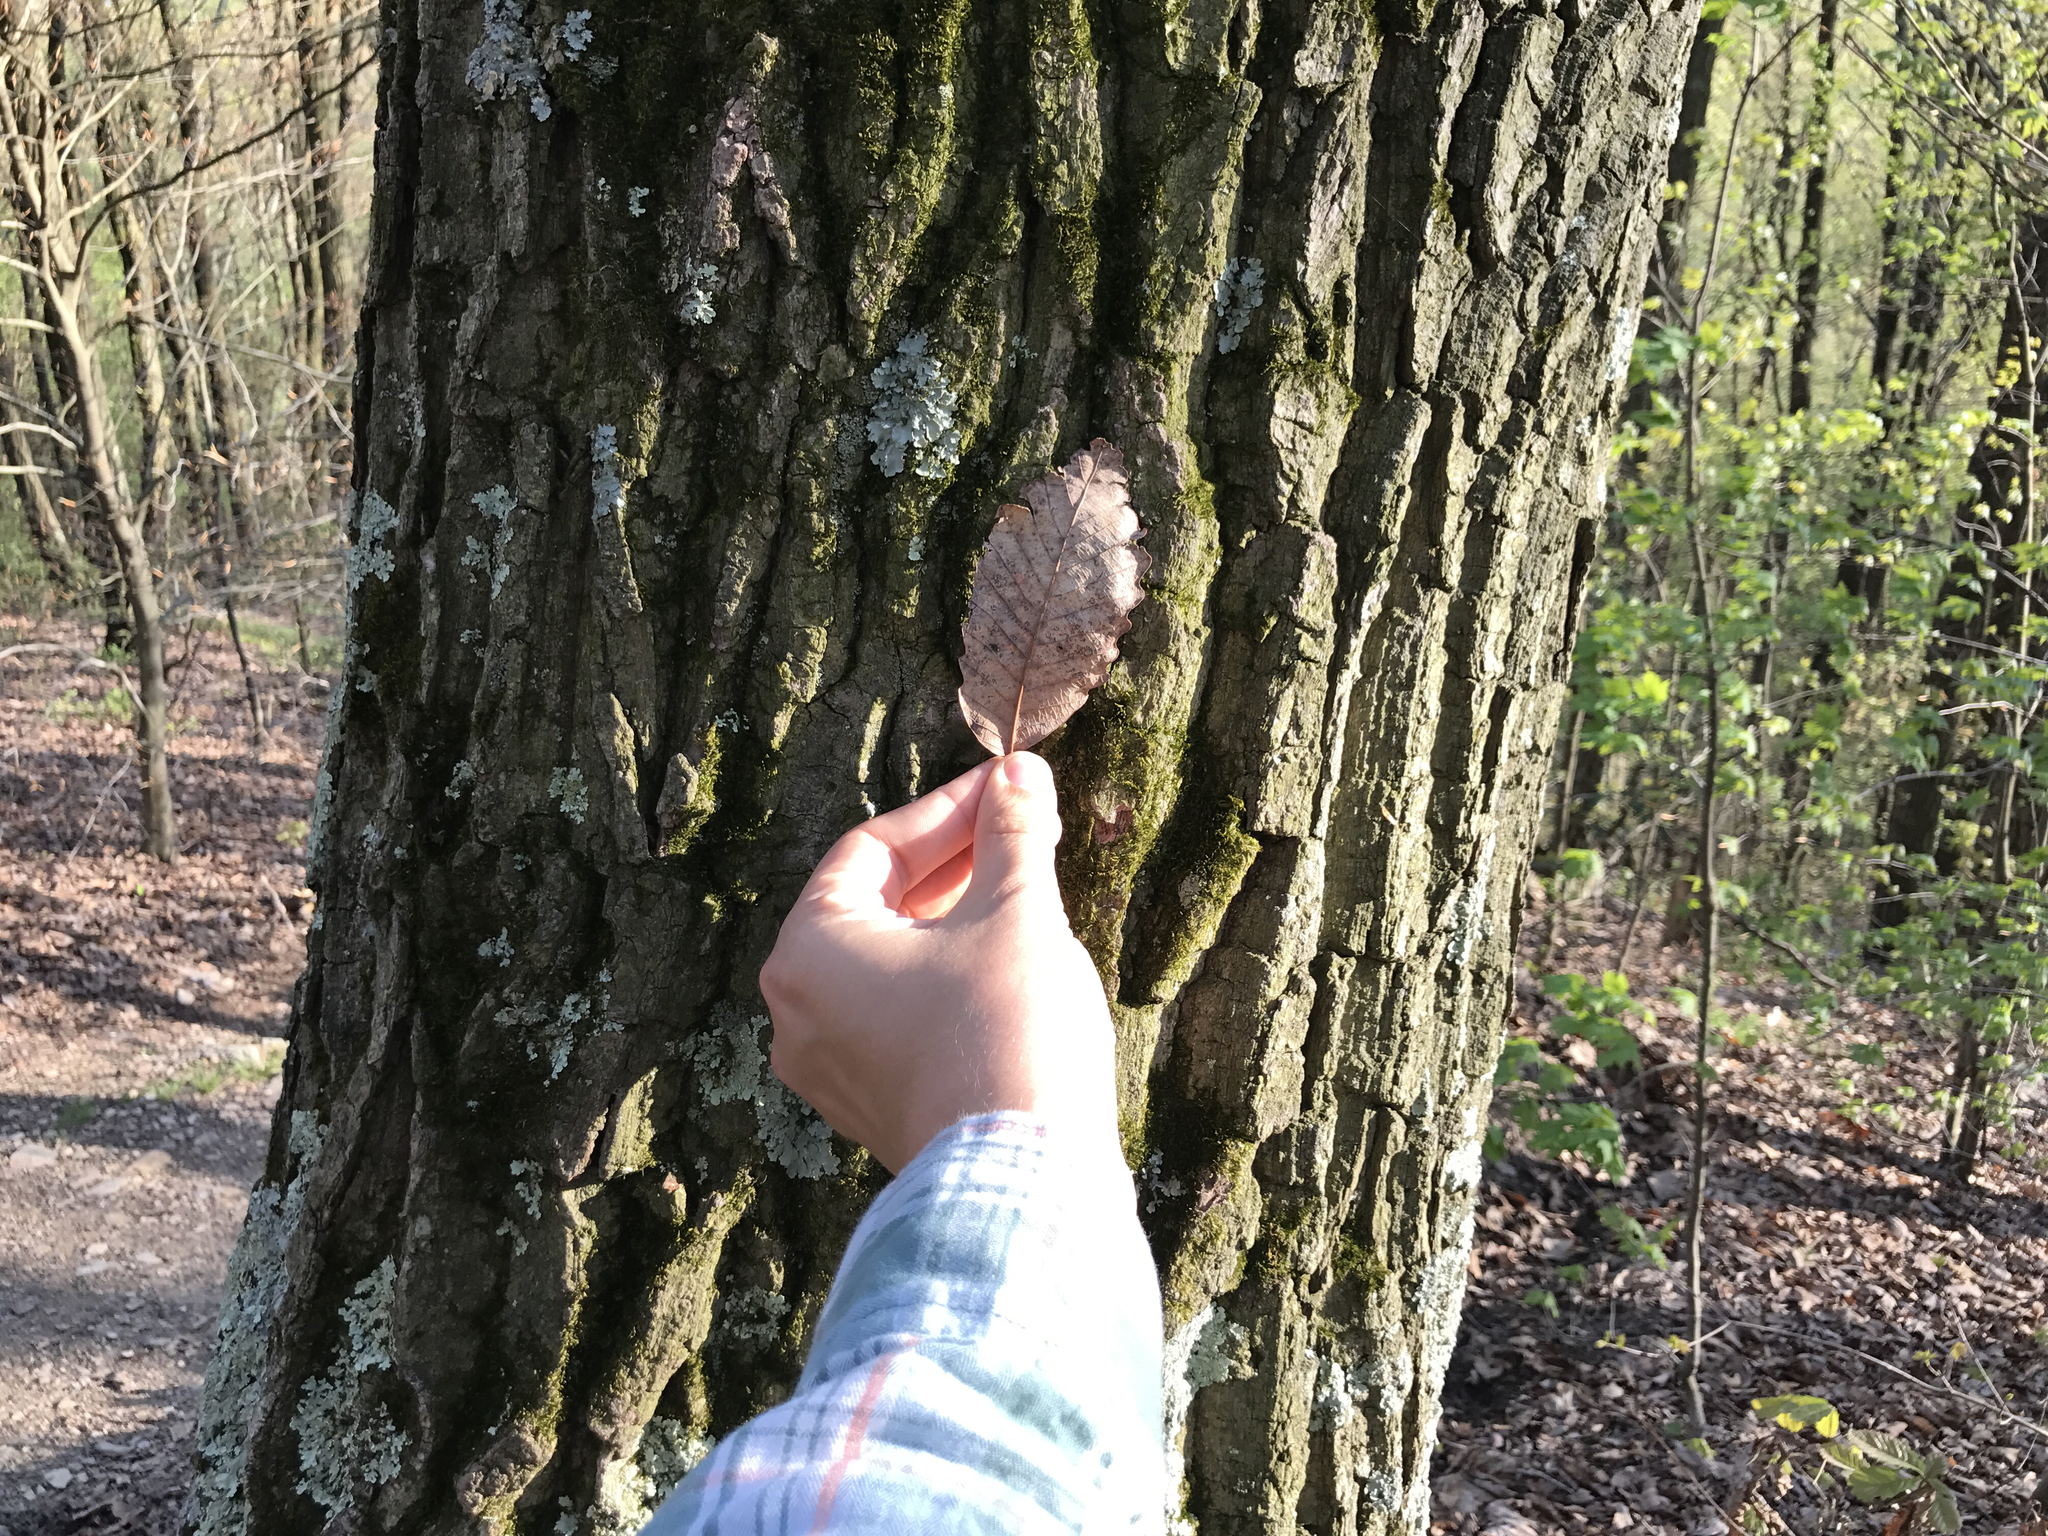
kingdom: Plantae
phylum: Tracheophyta
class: Magnoliopsida
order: Fagales
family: Fagaceae
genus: Quercus
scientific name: Quercus montana
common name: Chestnut oak
